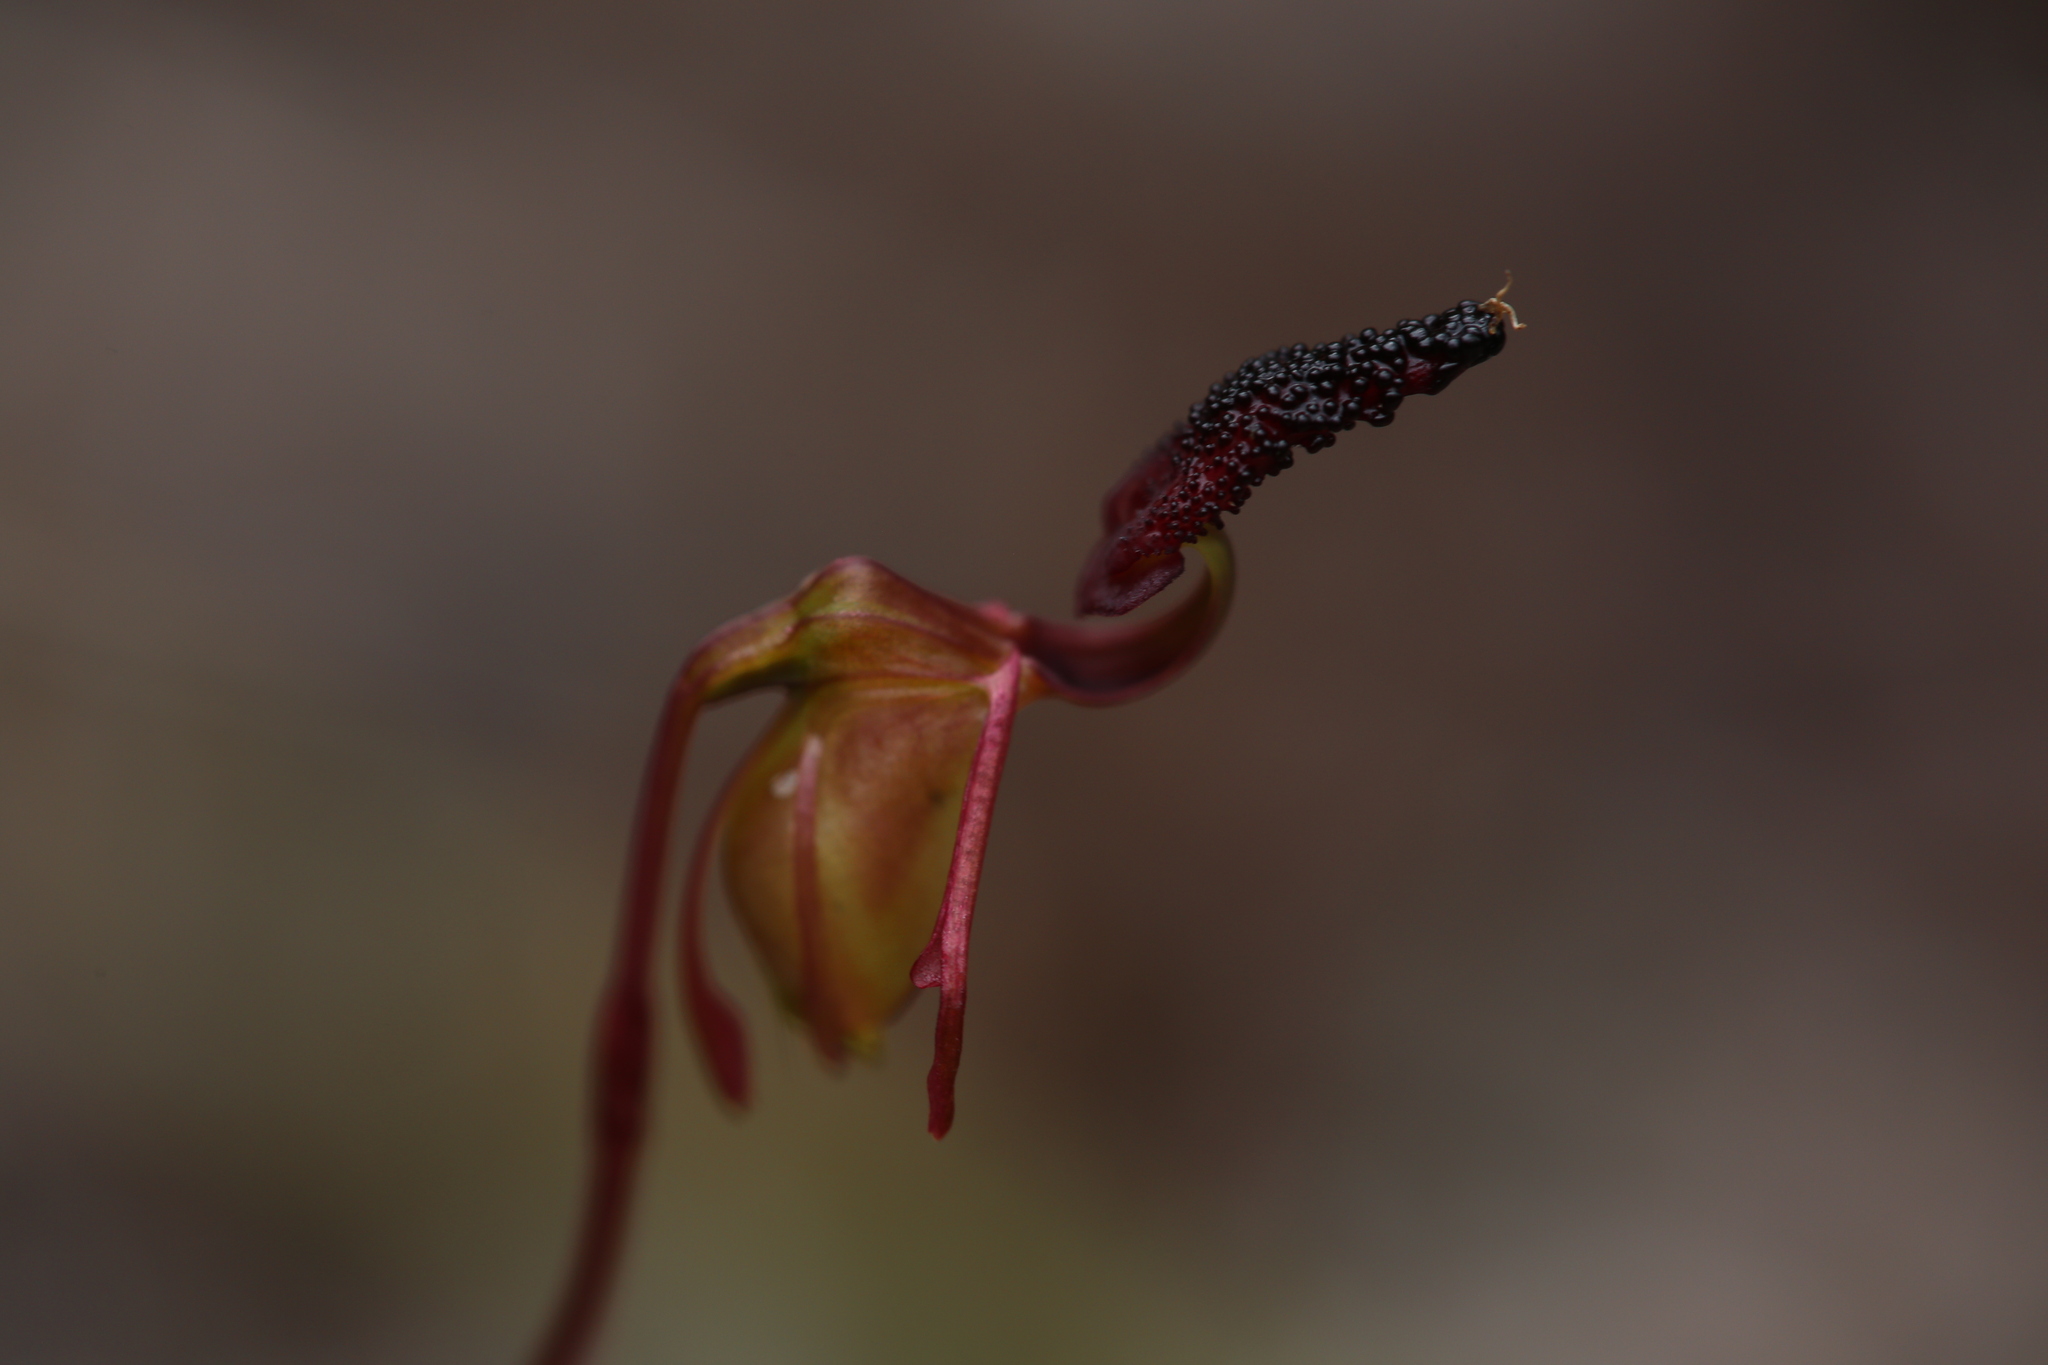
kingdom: Plantae
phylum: Tracheophyta
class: Liliopsida
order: Asparagales
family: Orchidaceae
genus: Caleana
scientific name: Caleana nigrita
